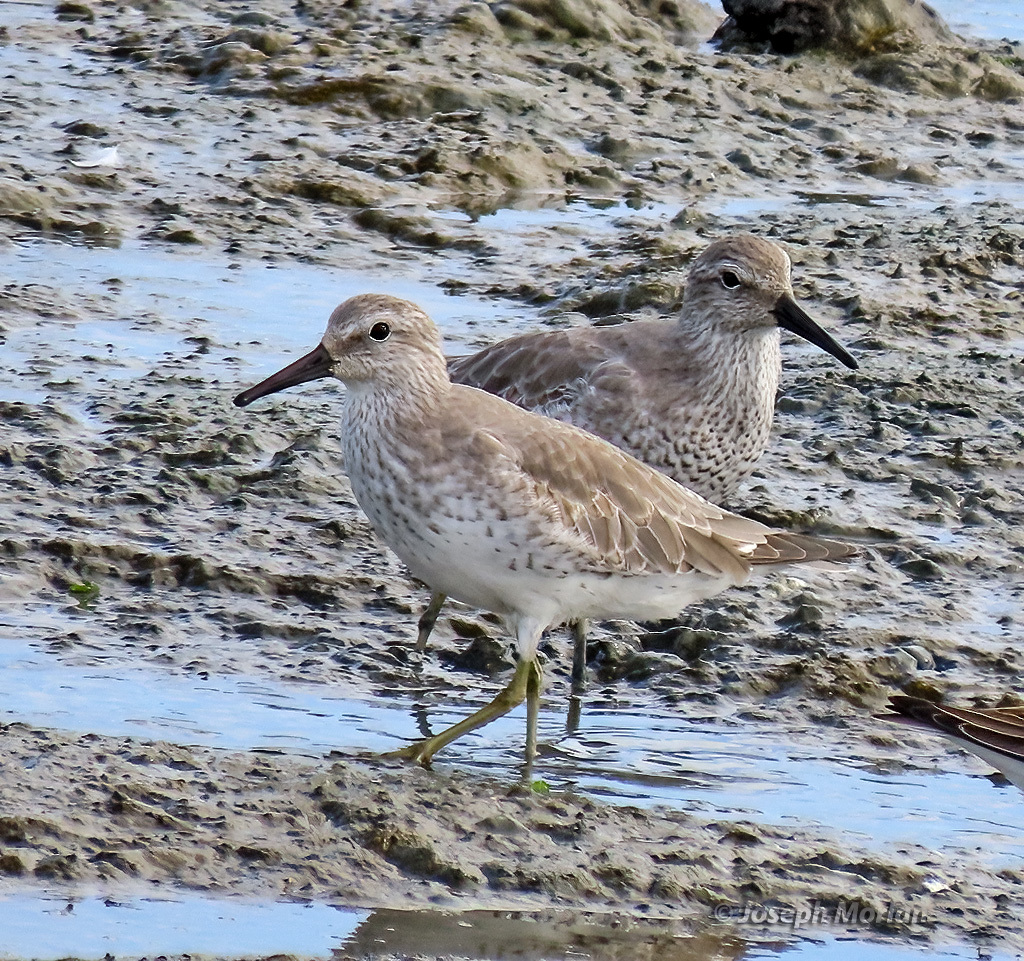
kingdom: Animalia
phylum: Chordata
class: Aves
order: Charadriiformes
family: Scolopacidae
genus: Calidris
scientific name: Calidris canutus
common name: Red knot
